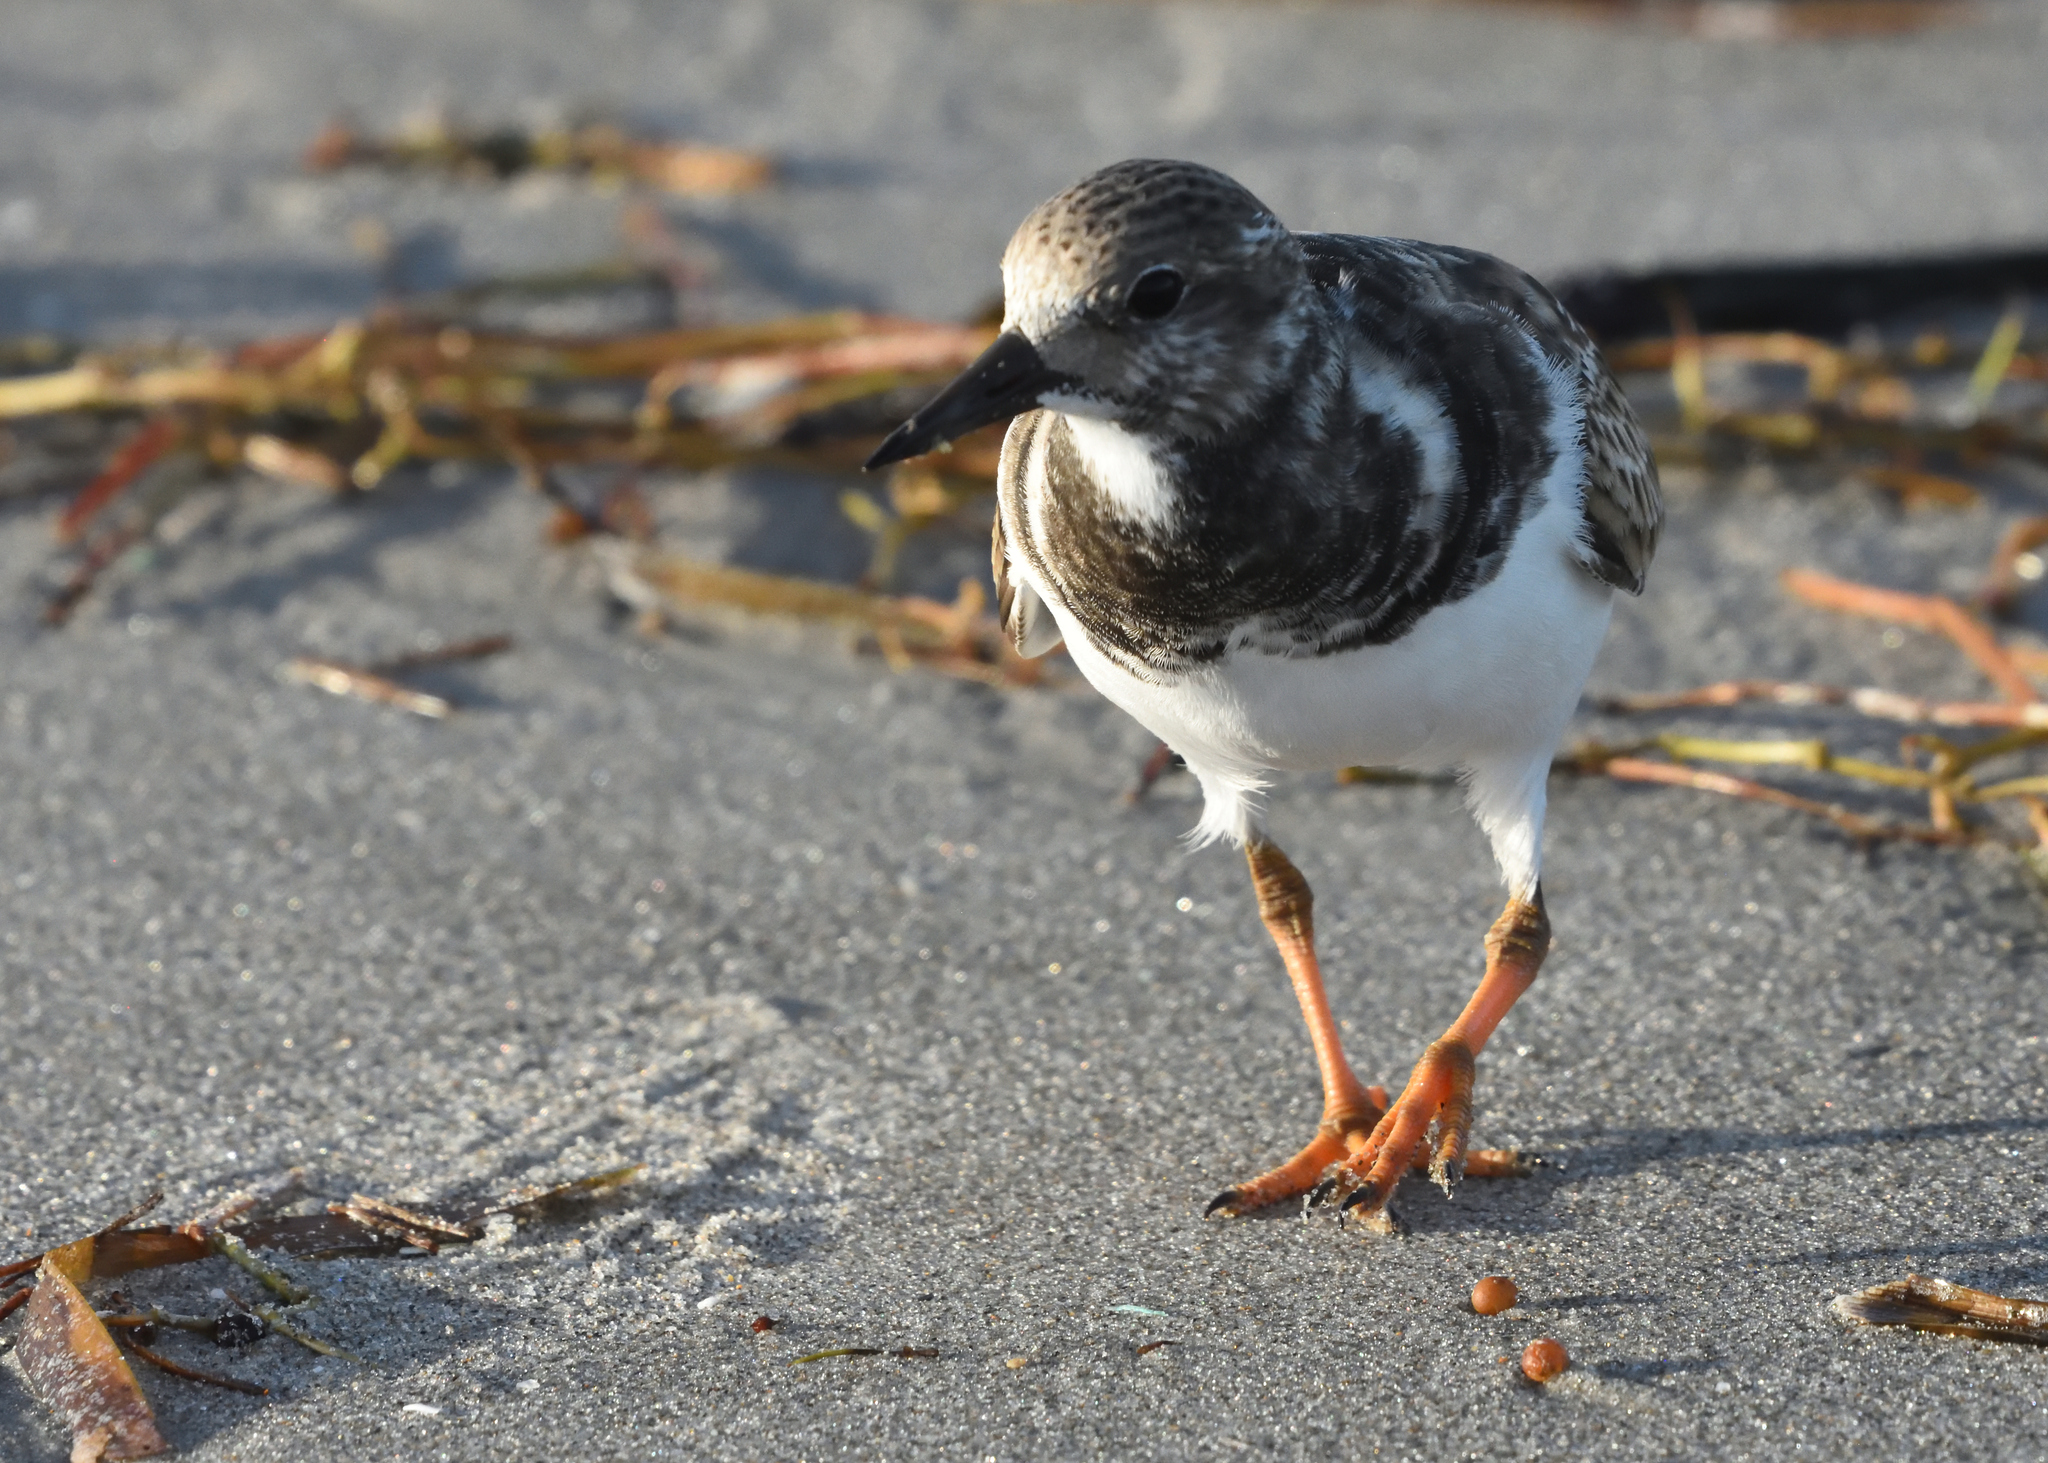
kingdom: Animalia
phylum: Chordata
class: Aves
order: Charadriiformes
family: Scolopacidae
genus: Arenaria
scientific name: Arenaria interpres
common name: Ruddy turnstone
